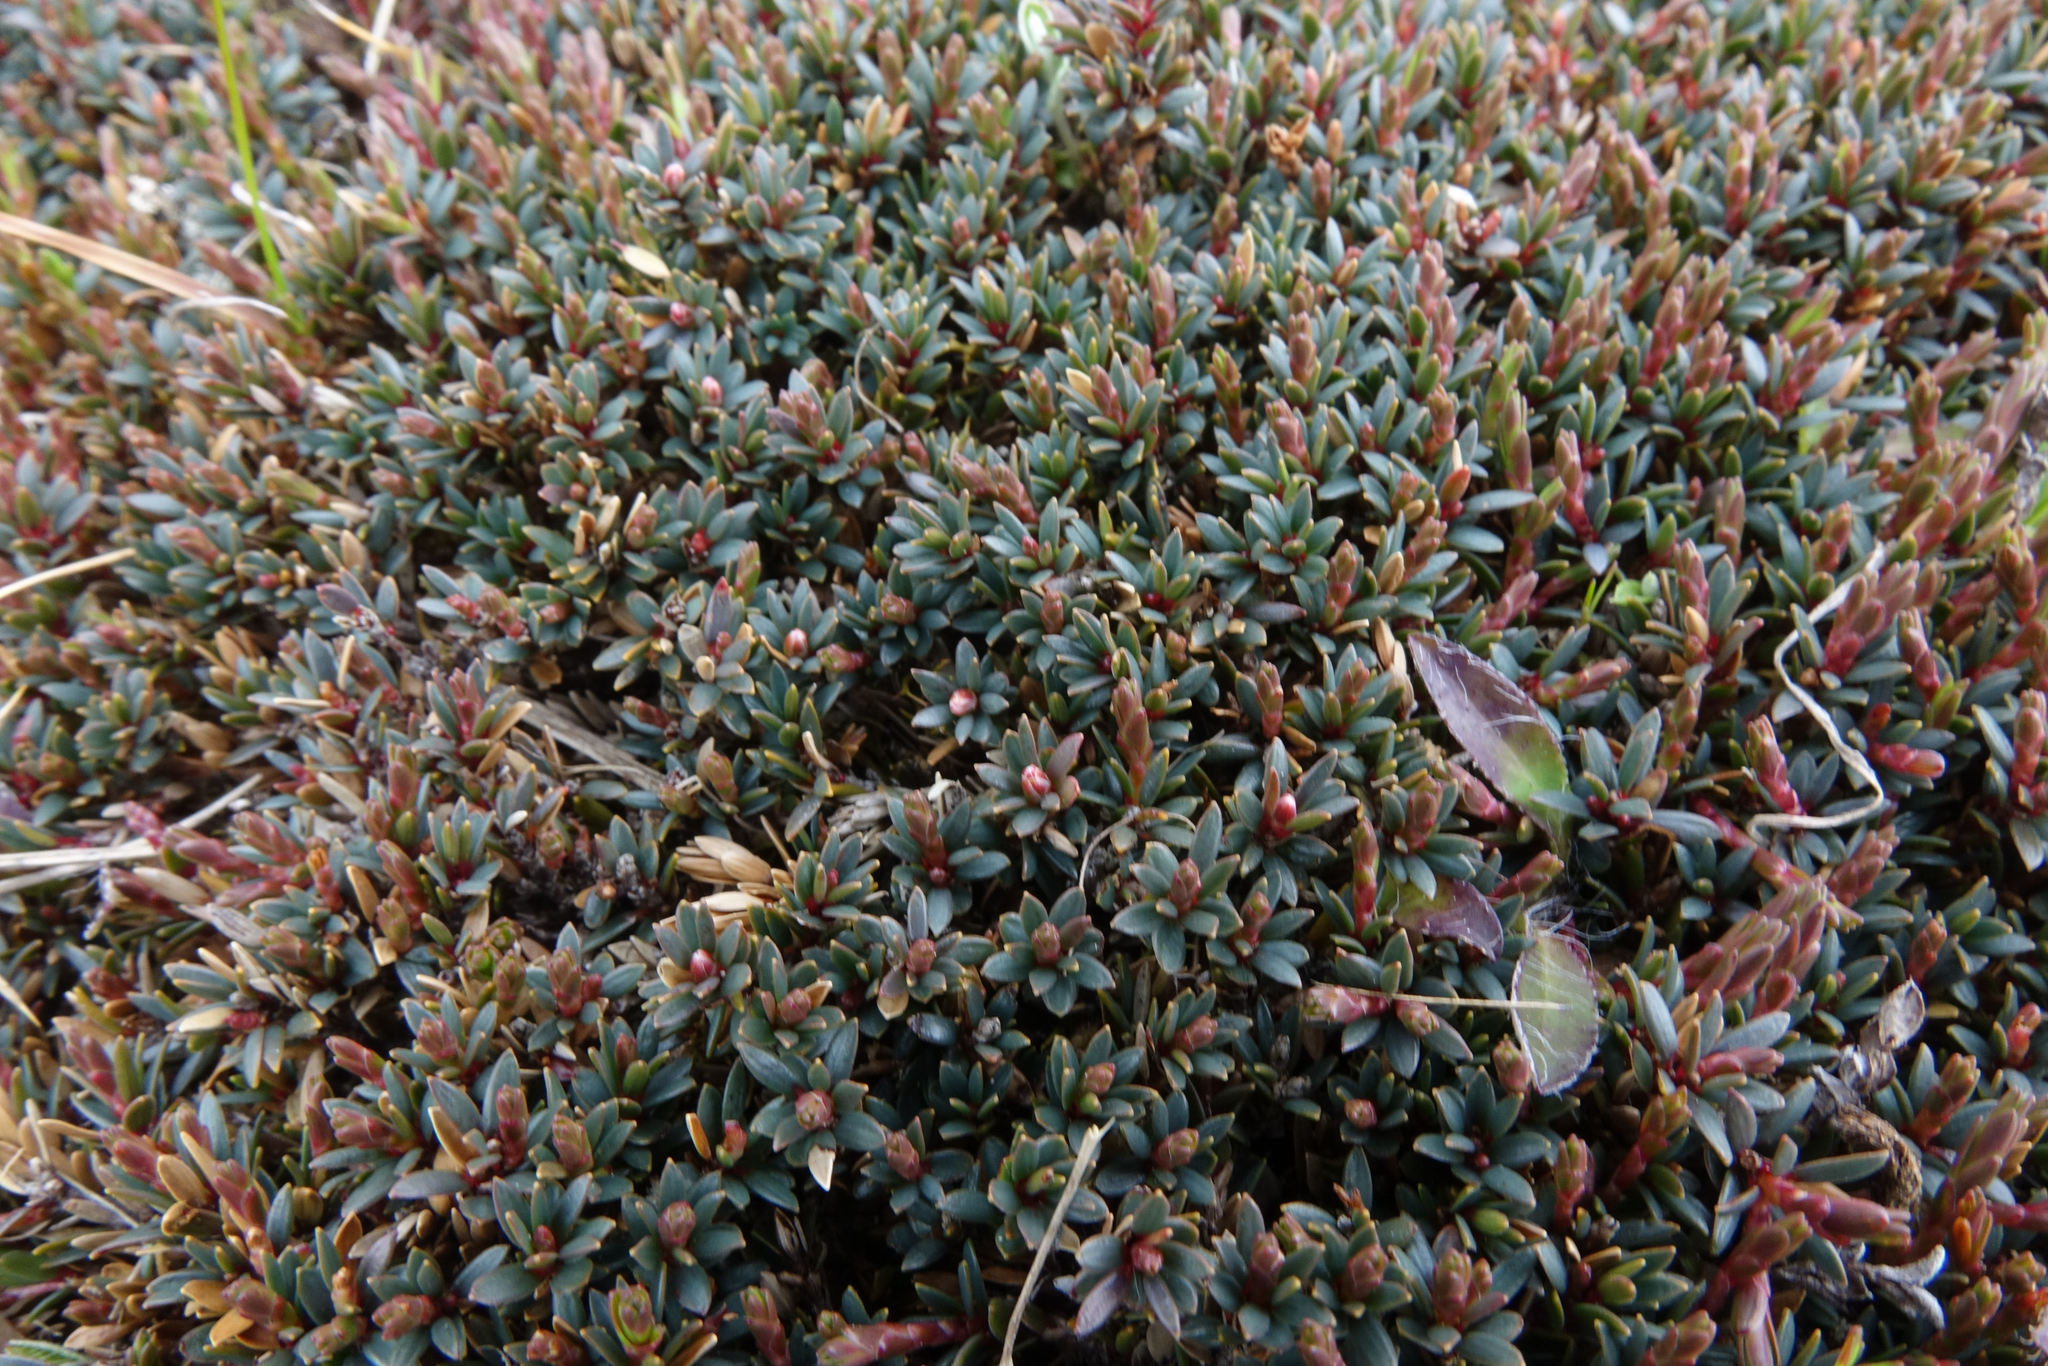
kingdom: Plantae
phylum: Tracheophyta
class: Magnoliopsida
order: Ericales
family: Ericaceae
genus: Pentachondra
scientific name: Pentachondra pumila
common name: Carpet-heath
